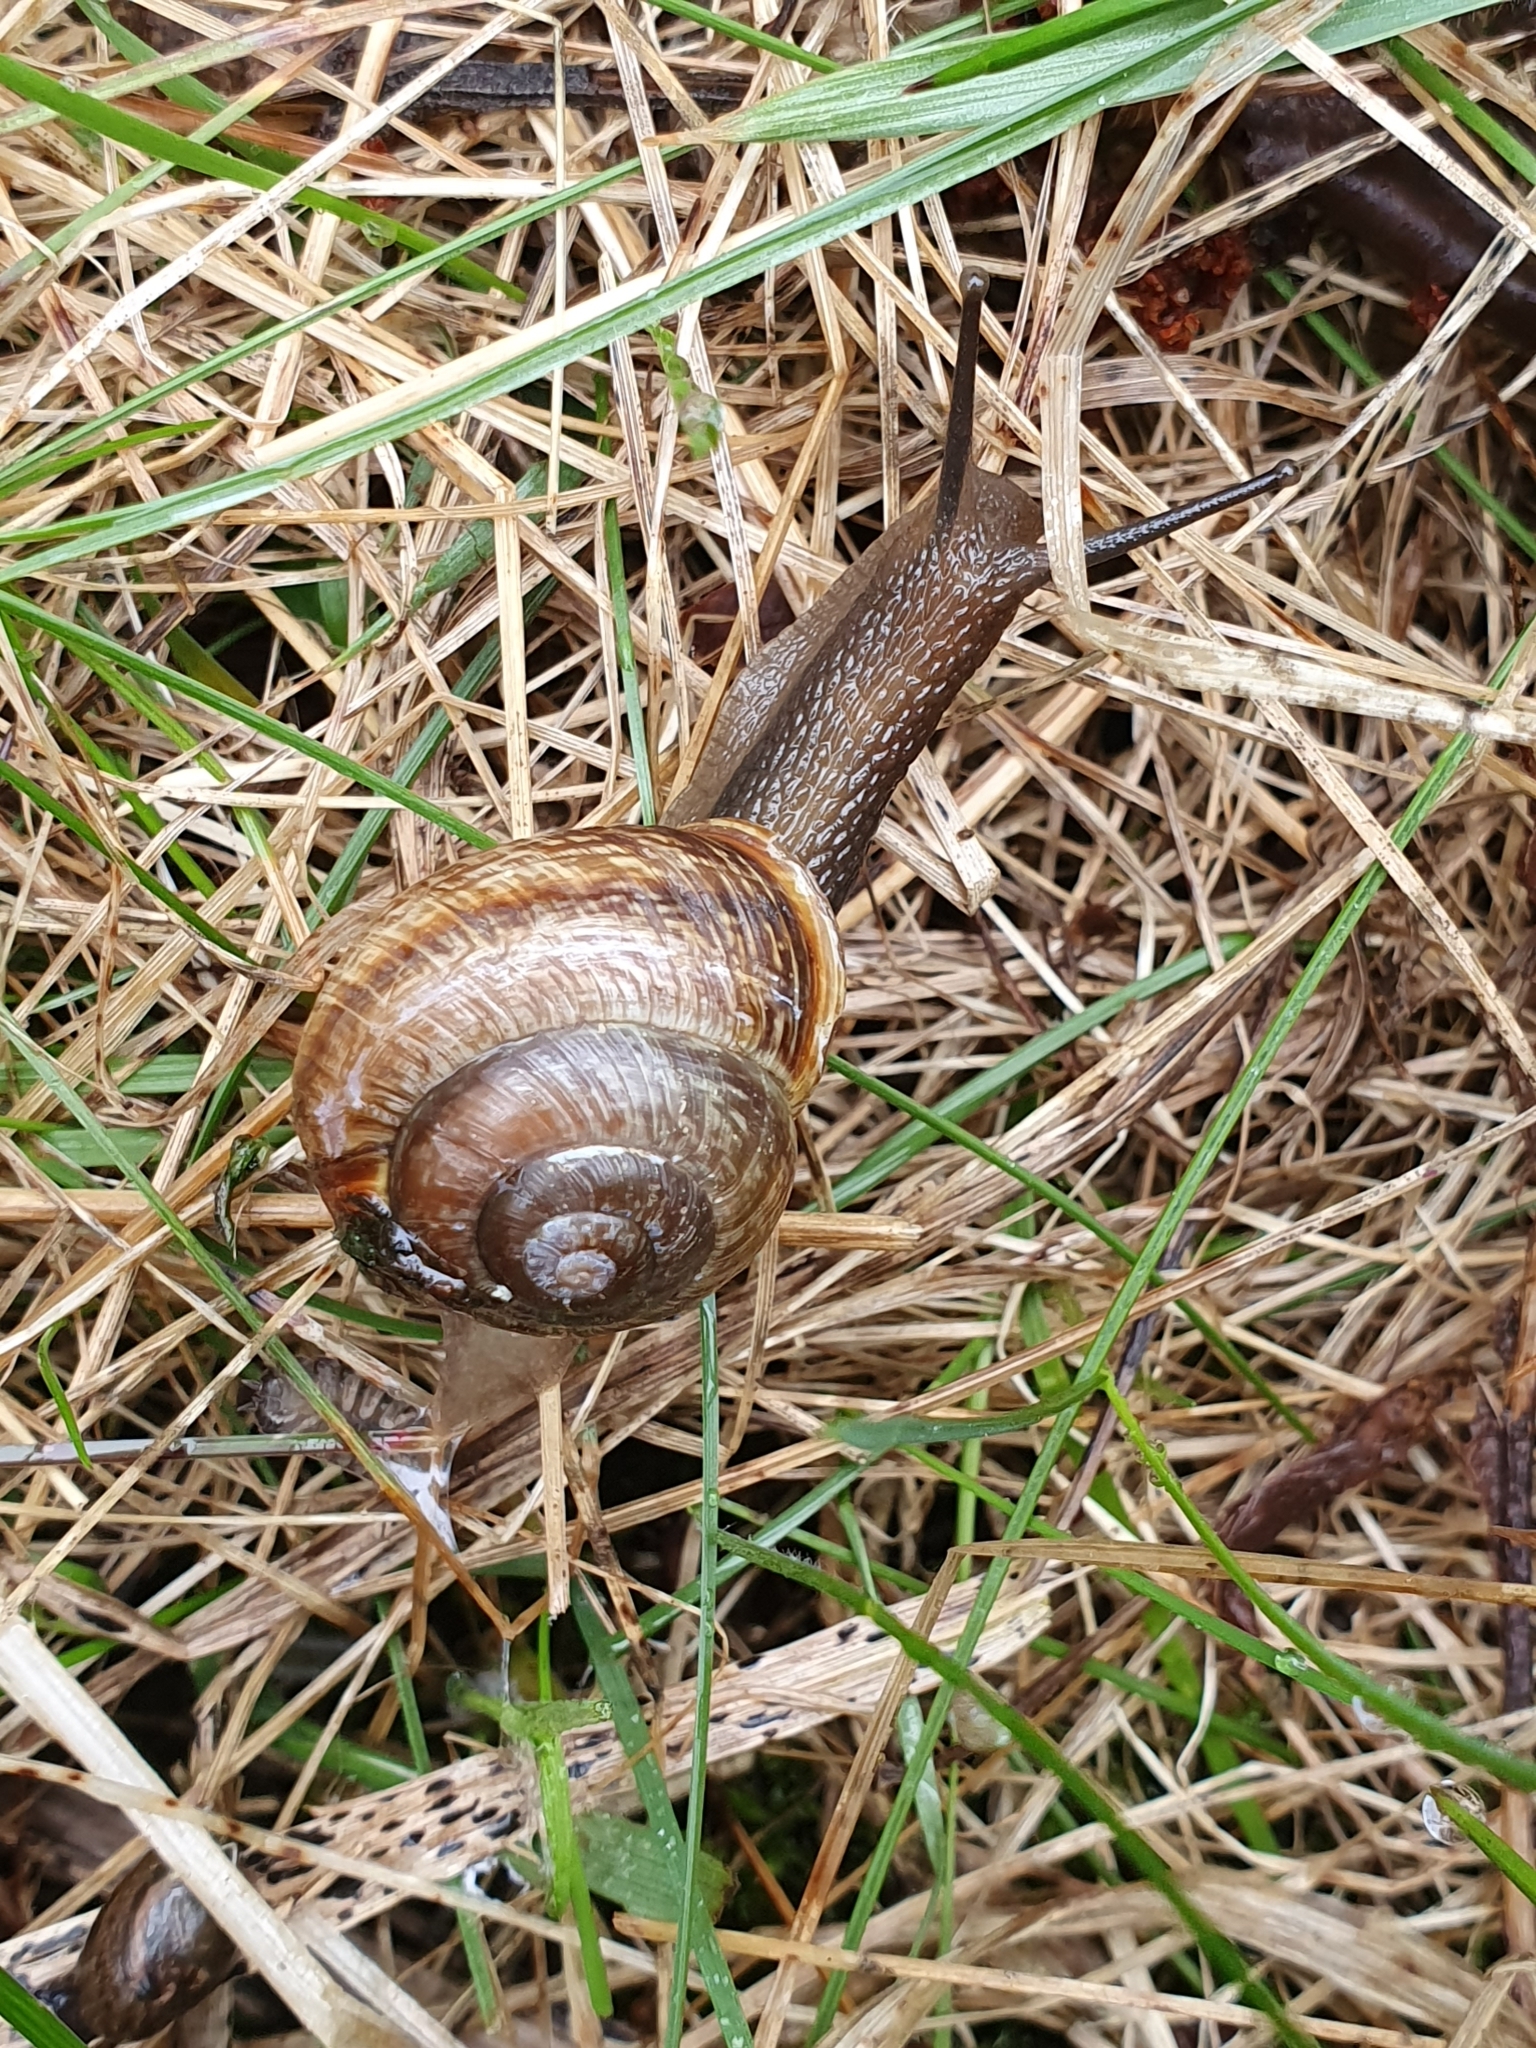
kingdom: Animalia
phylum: Mollusca
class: Gastropoda
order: Stylommatophora
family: Helicidae
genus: Arianta
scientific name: Arianta arbustorum
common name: Copse snail
